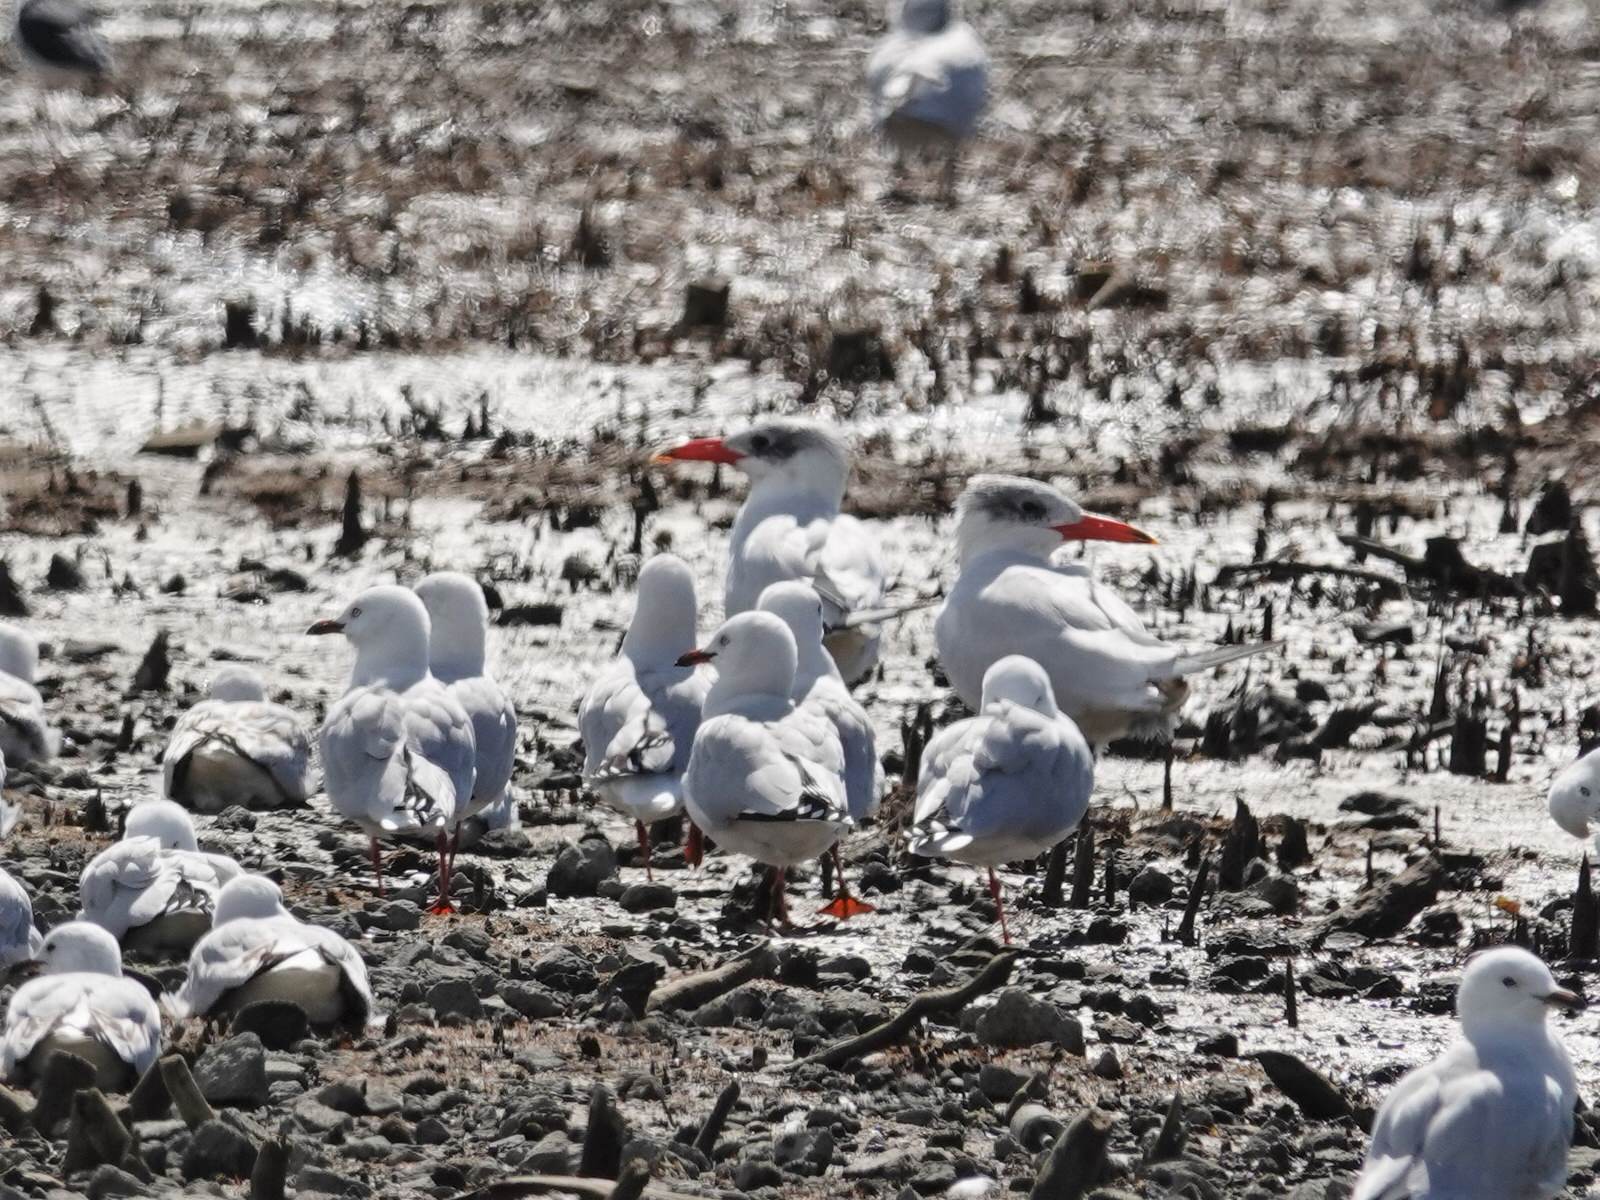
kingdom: Animalia
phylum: Chordata
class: Aves
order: Charadriiformes
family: Laridae
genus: Hydroprogne
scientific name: Hydroprogne caspia
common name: Caspian tern
